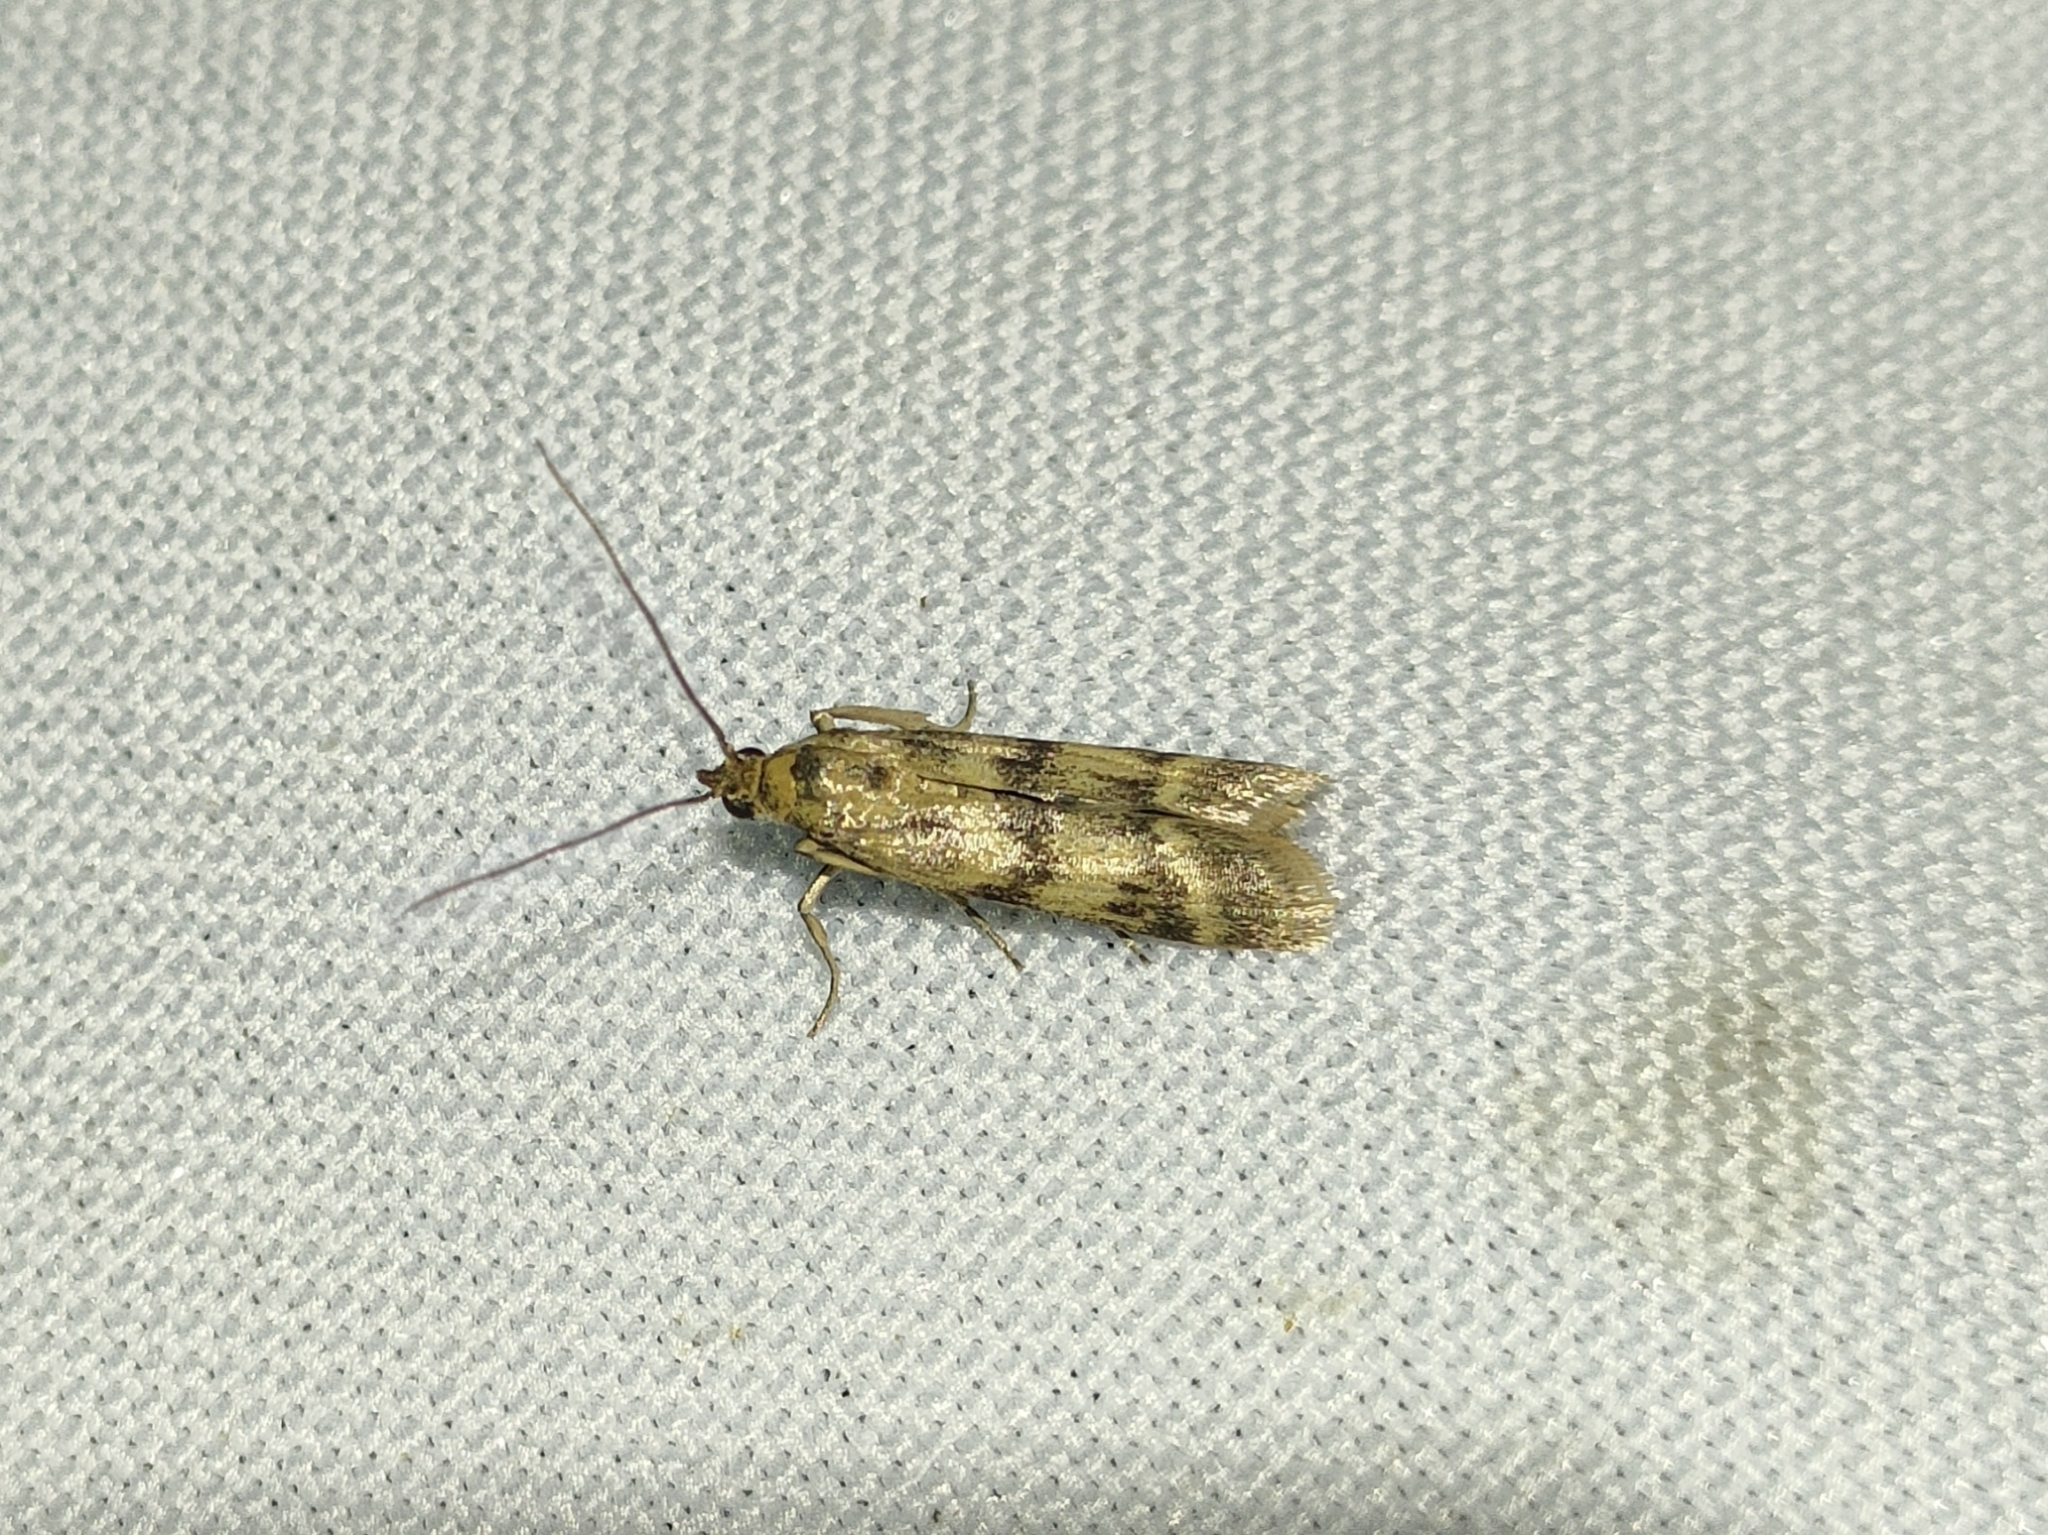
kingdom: Animalia
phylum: Arthropoda
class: Insecta
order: Lepidoptera
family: Pyralidae
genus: Homoeosoma
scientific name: Homoeosoma sinuella
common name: Twin-barred knot-horn
